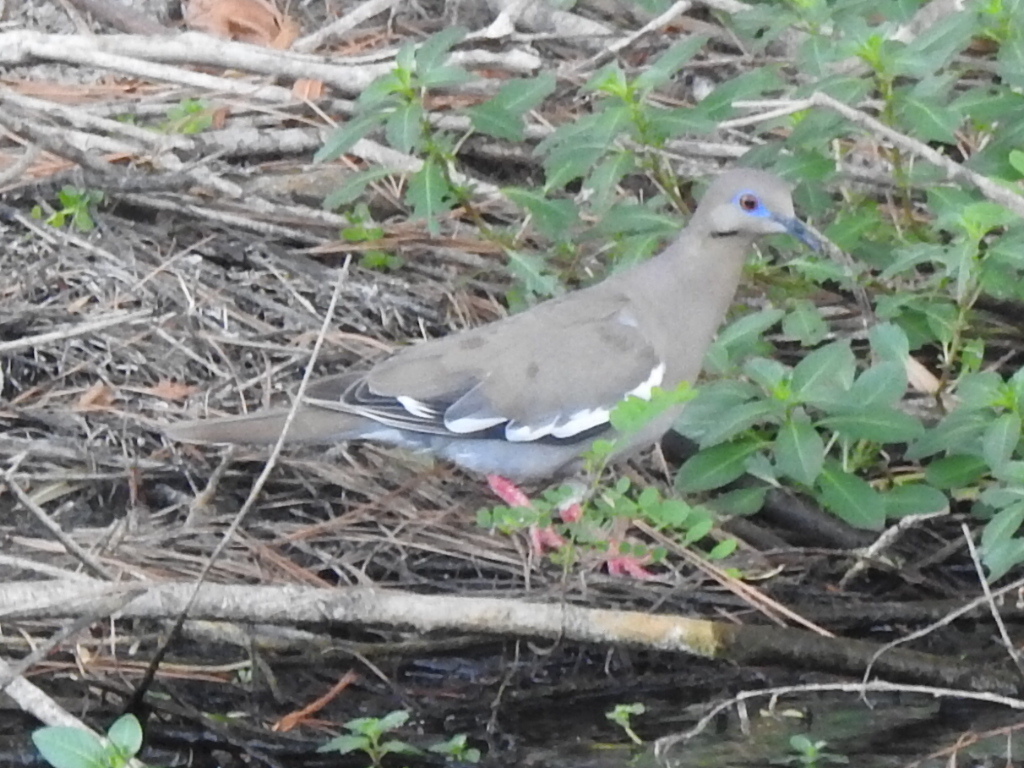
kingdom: Animalia
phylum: Chordata
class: Aves
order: Columbiformes
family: Columbidae
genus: Zenaida
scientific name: Zenaida asiatica
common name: White-winged dove
